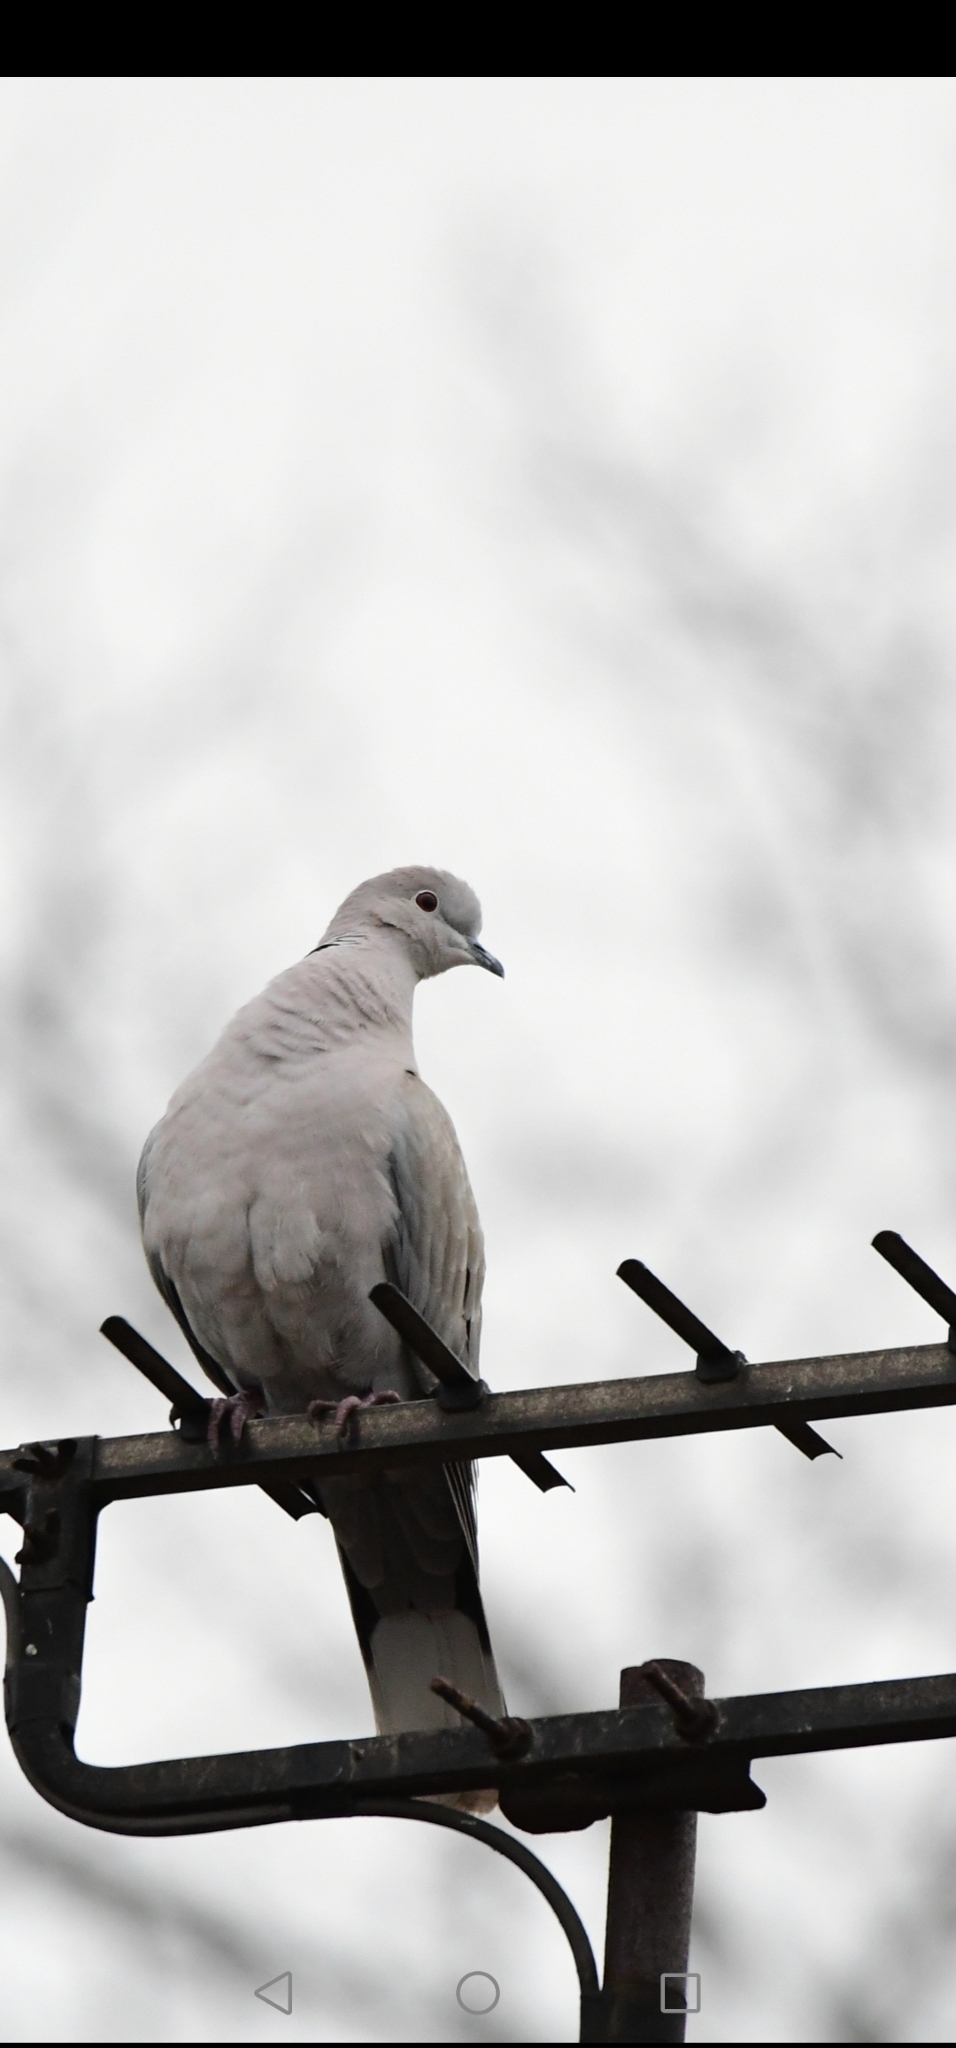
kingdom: Animalia
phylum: Chordata
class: Aves
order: Columbiformes
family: Columbidae
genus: Streptopelia
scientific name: Streptopelia decaocto
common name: Eurasian collared dove
